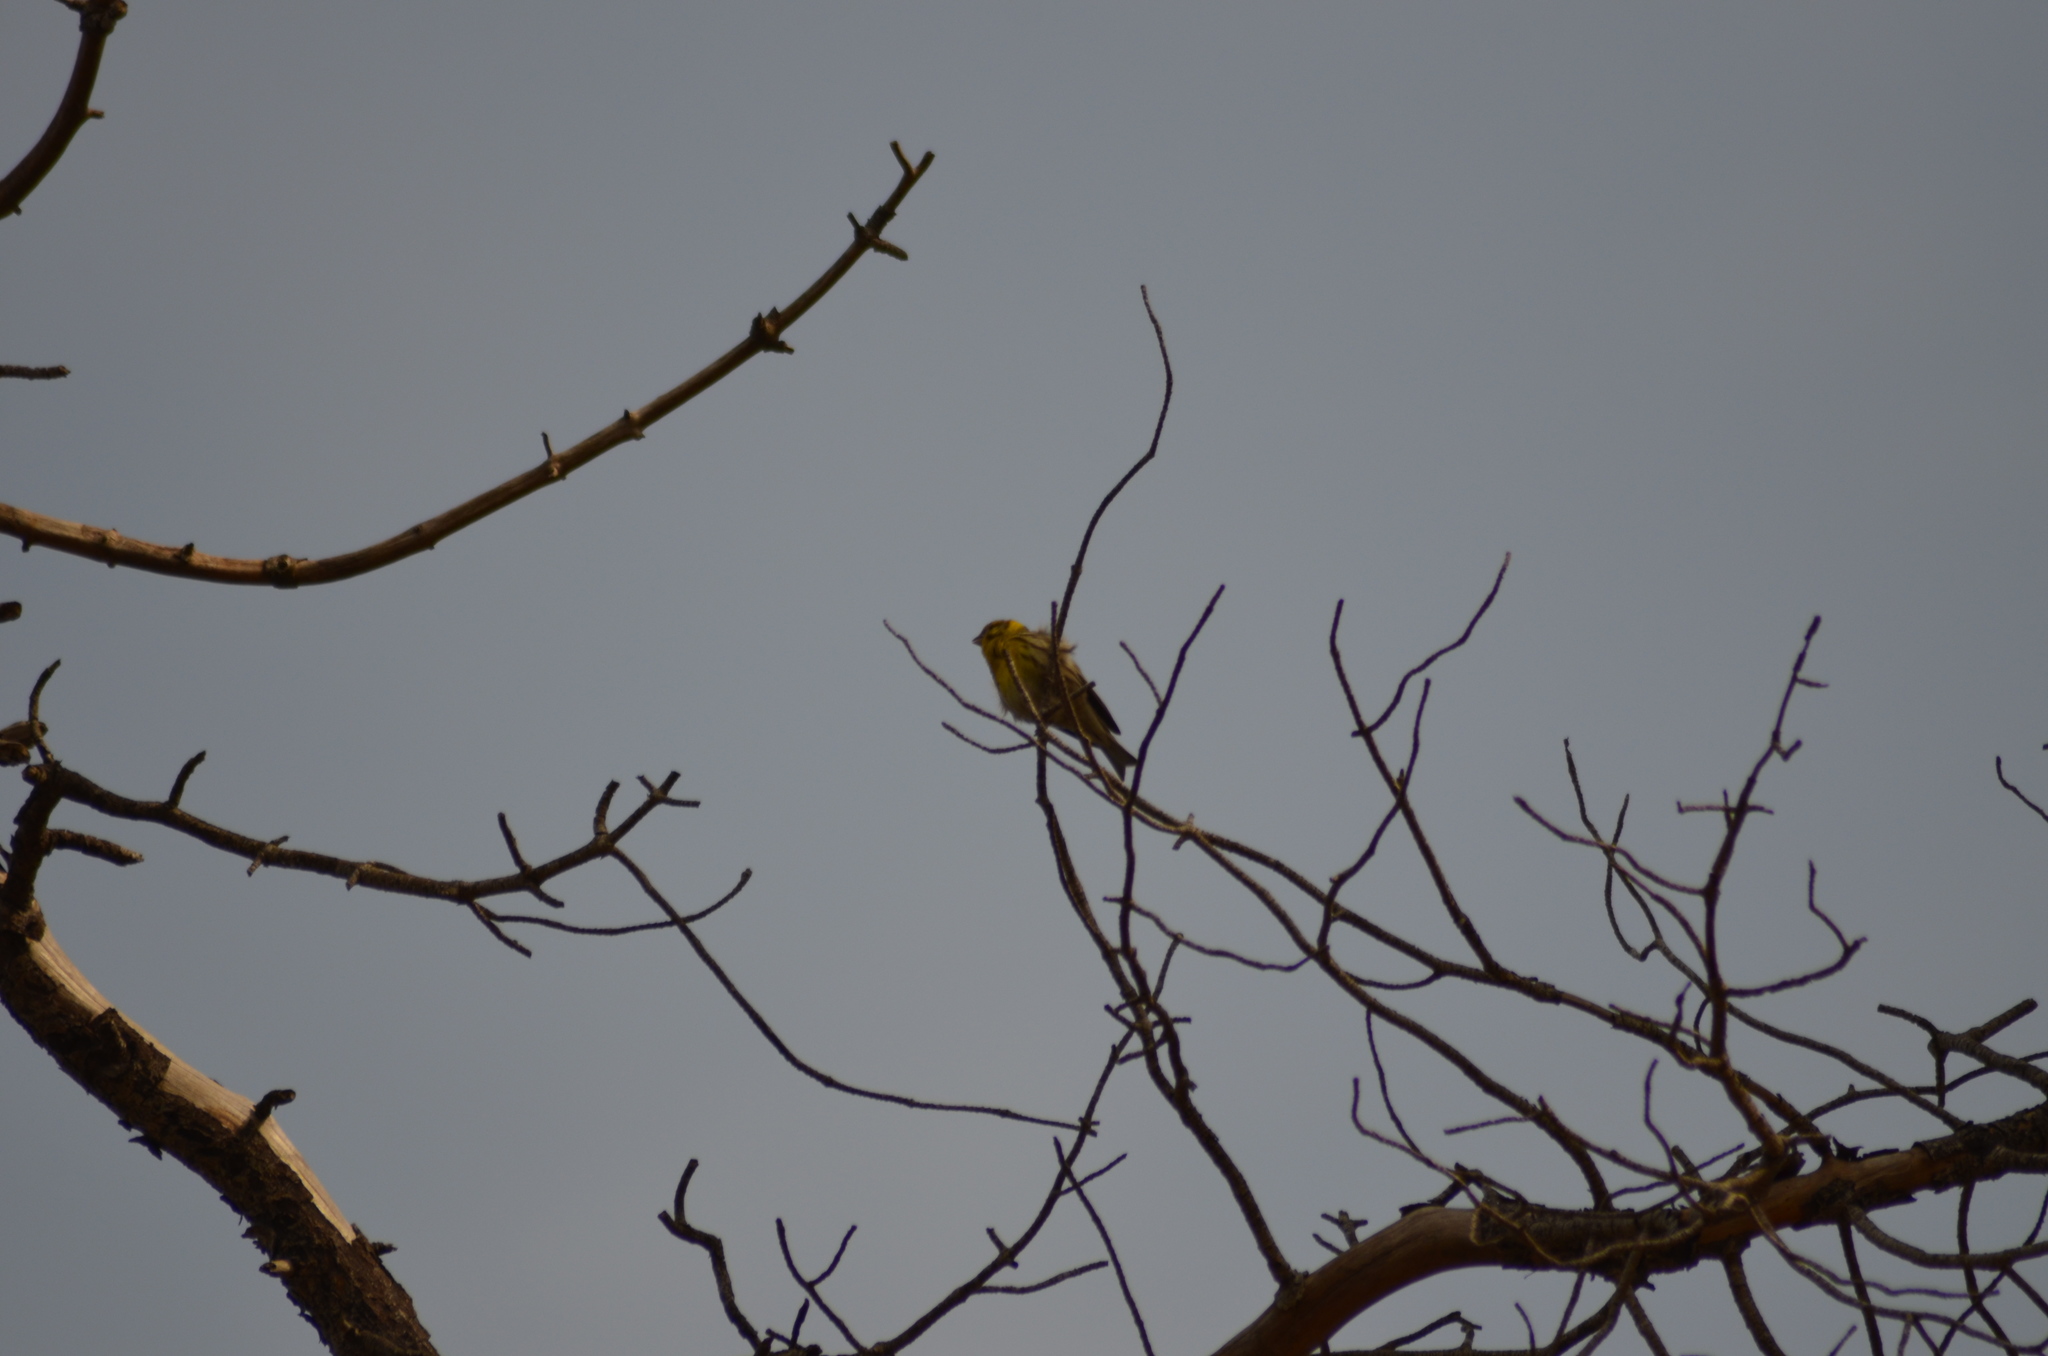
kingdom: Animalia
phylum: Chordata
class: Aves
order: Passeriformes
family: Fringillidae
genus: Serinus
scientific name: Serinus serinus
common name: European serin
